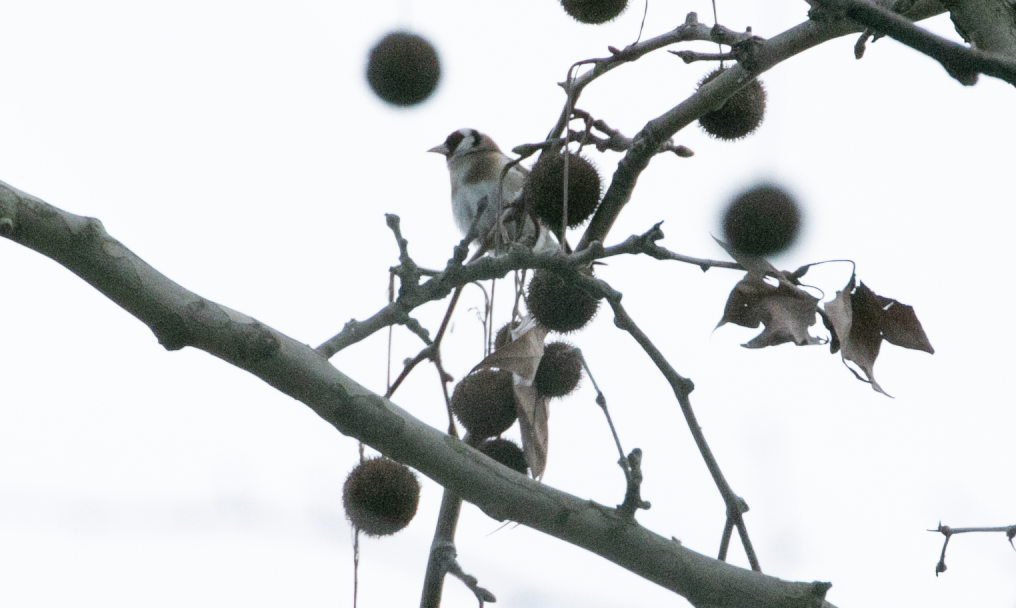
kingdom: Animalia
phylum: Chordata
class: Aves
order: Passeriformes
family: Fringillidae
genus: Carduelis
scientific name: Carduelis carduelis
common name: European goldfinch
